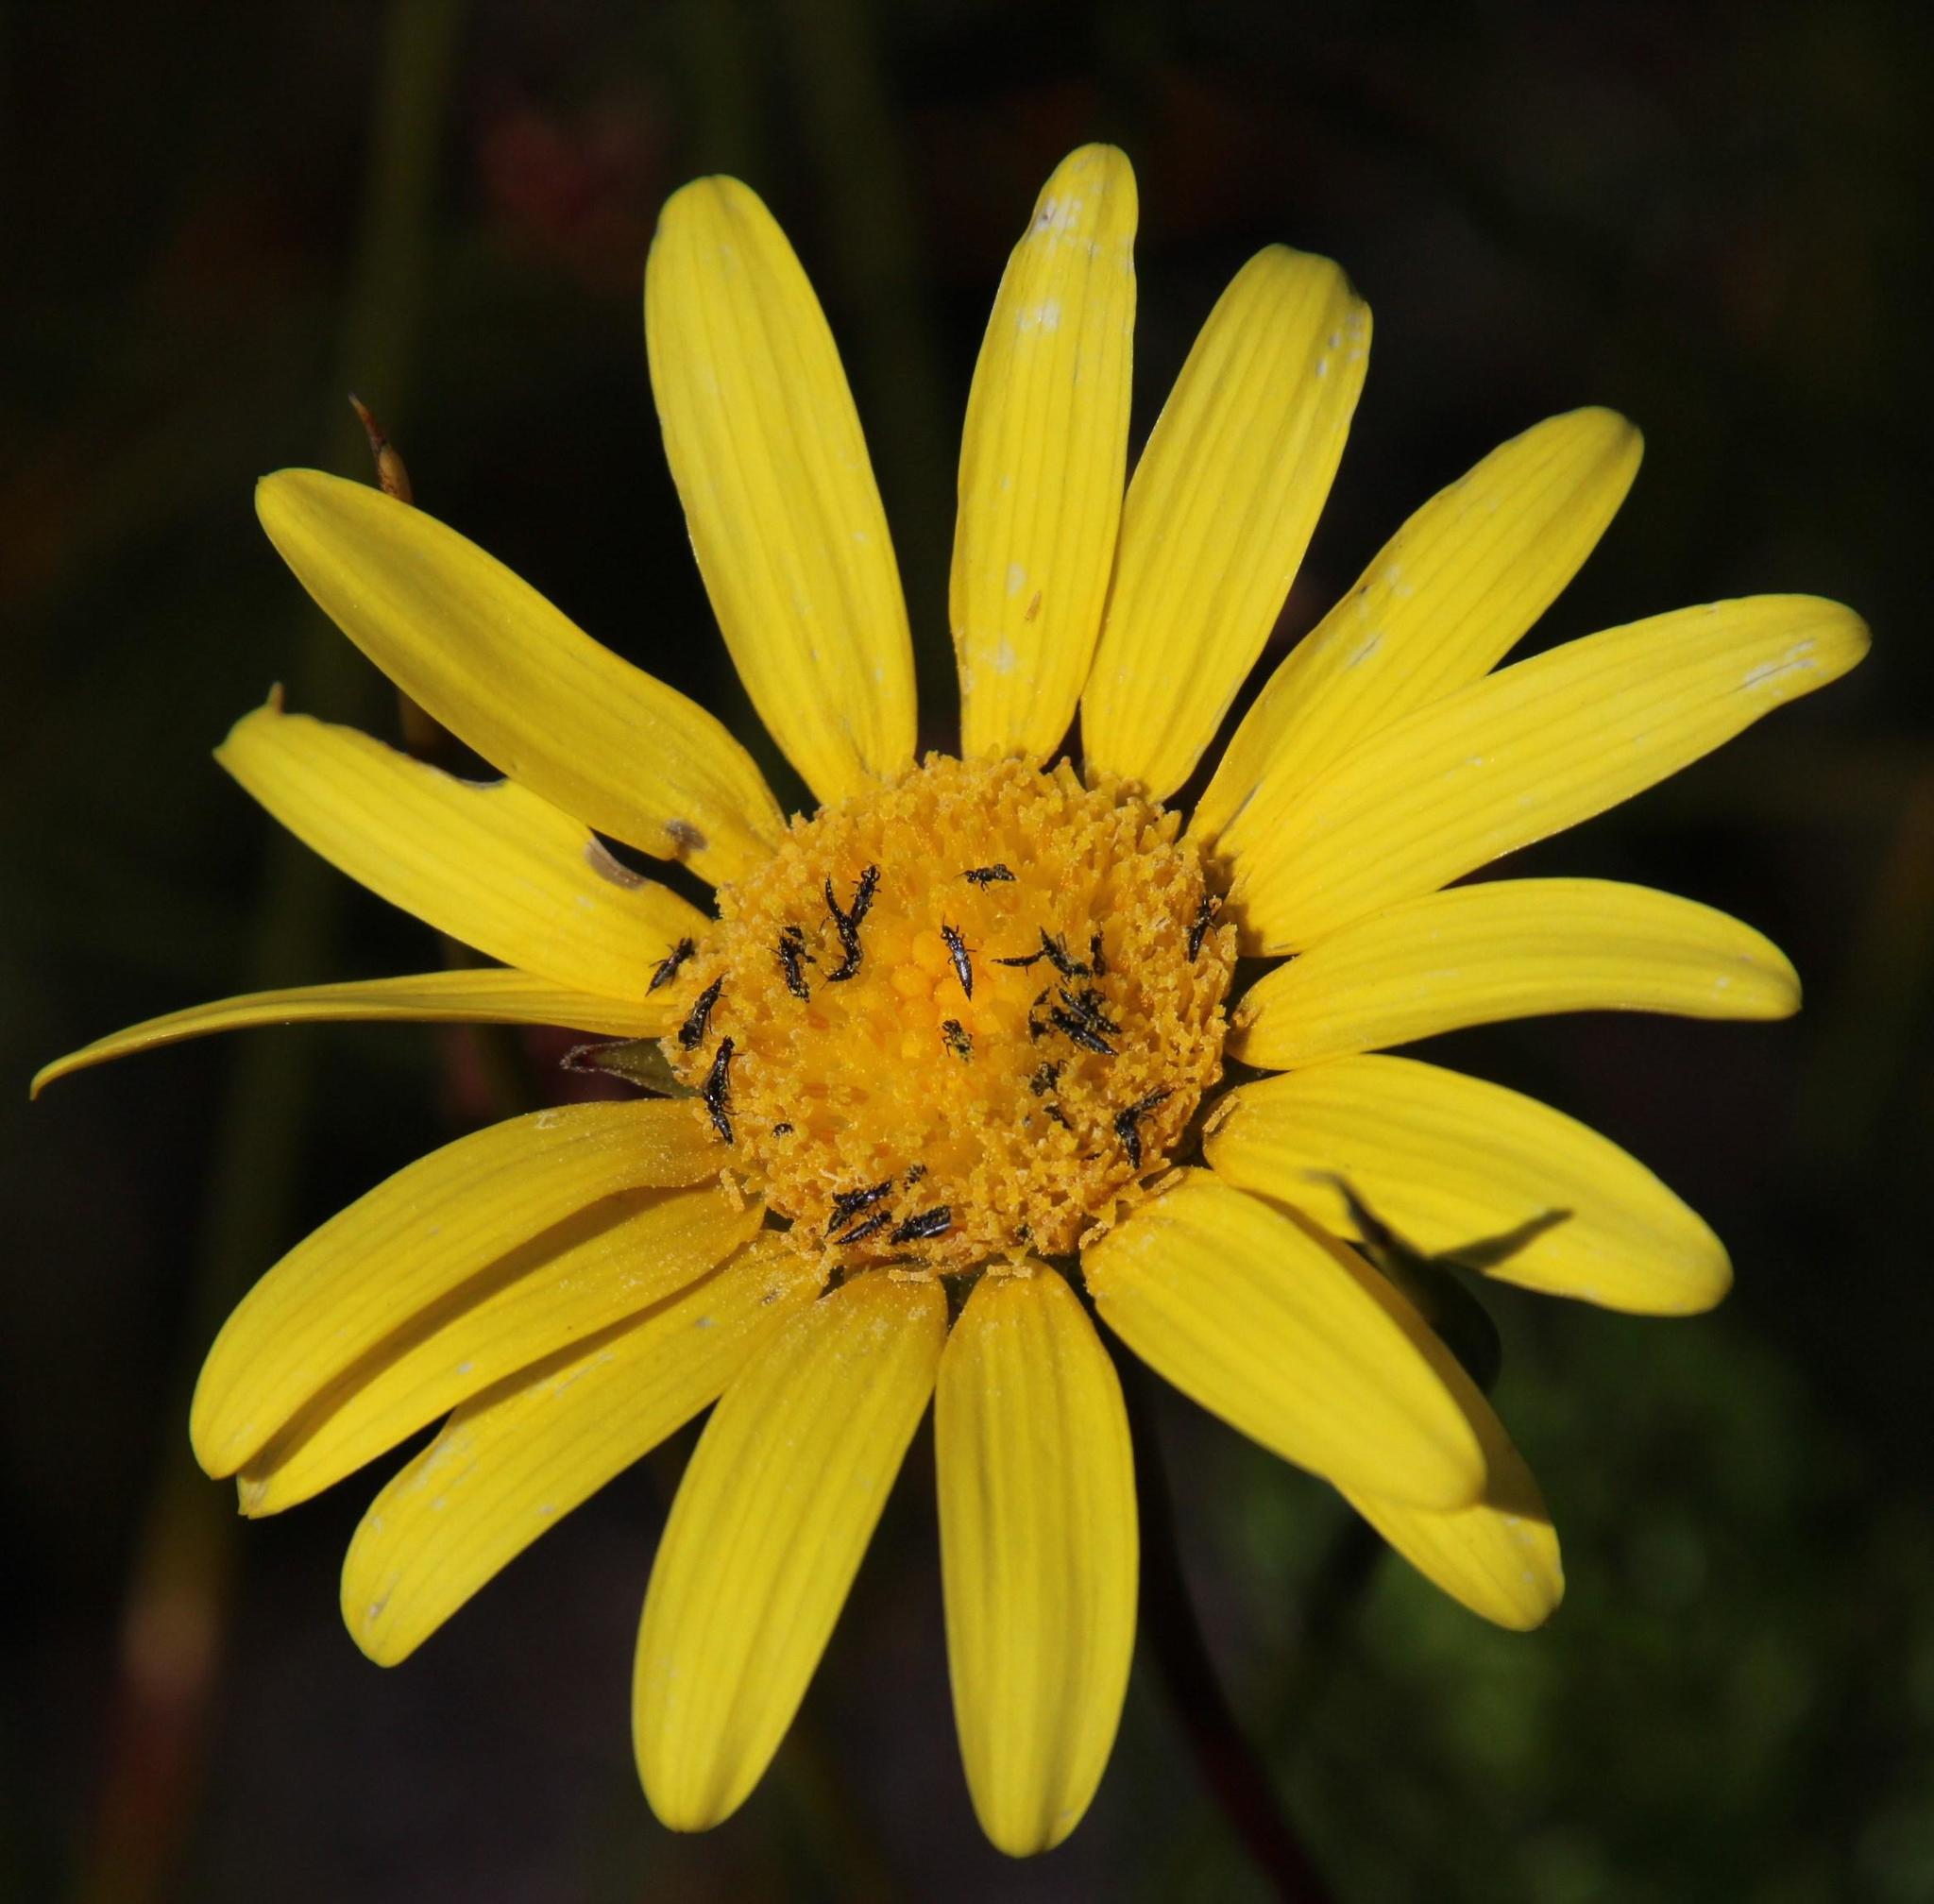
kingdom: Plantae
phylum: Tracheophyta
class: Magnoliopsida
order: Asterales
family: Asteraceae
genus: Euryops
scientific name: Euryops abrotanifolius
